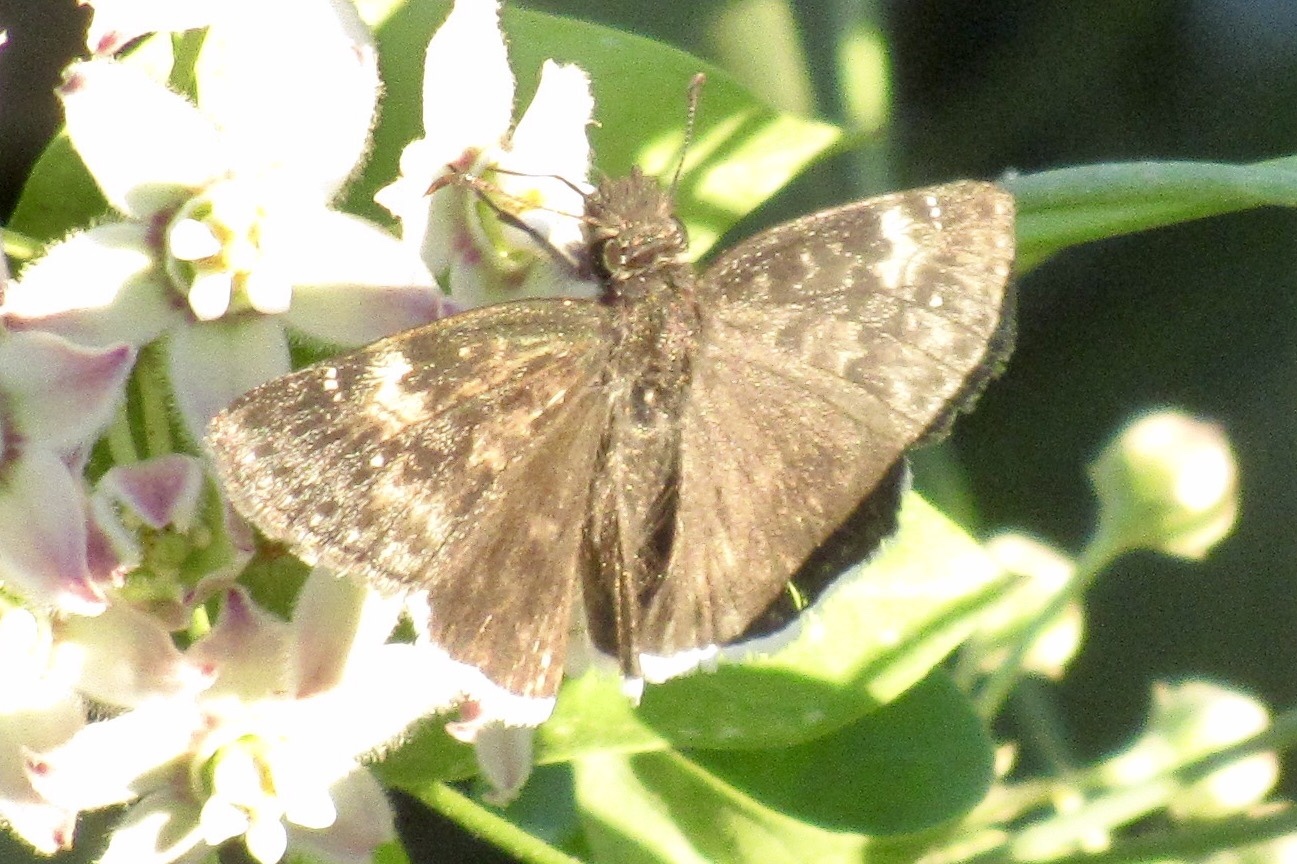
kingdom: Animalia
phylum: Arthropoda
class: Insecta
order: Lepidoptera
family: Hesperiidae
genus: Erynnis
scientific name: Erynnis funeralis
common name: Funereal duskywing
